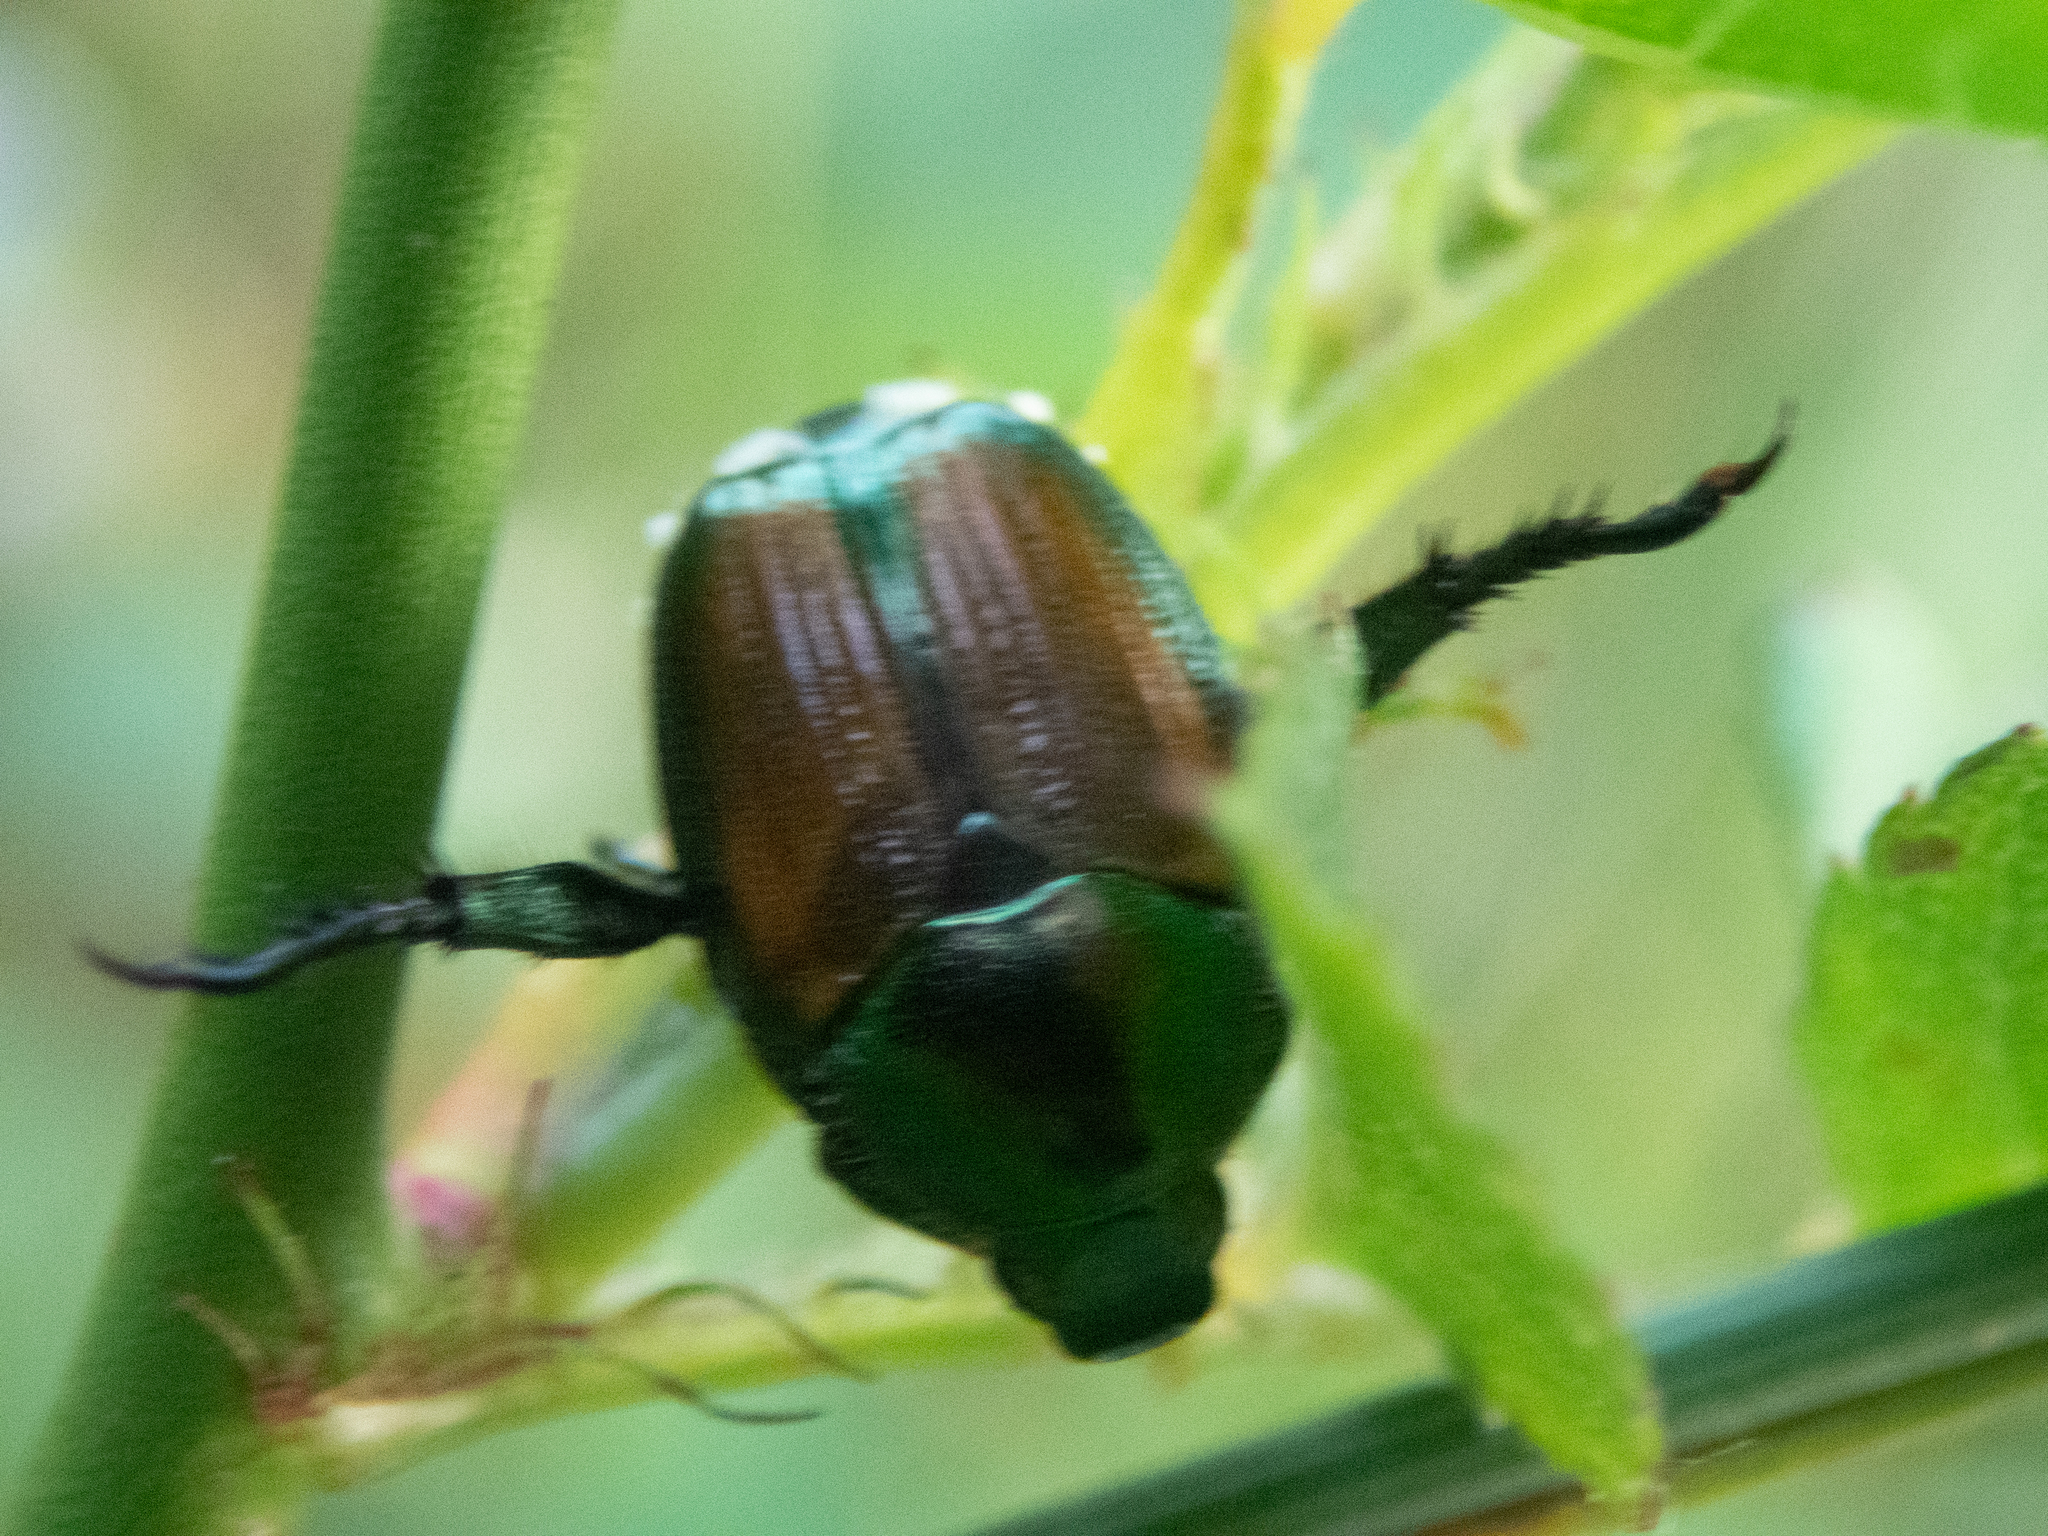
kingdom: Animalia
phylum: Arthropoda
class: Insecta
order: Coleoptera
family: Scarabaeidae
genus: Popillia
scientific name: Popillia japonica
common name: Japanese beetle
